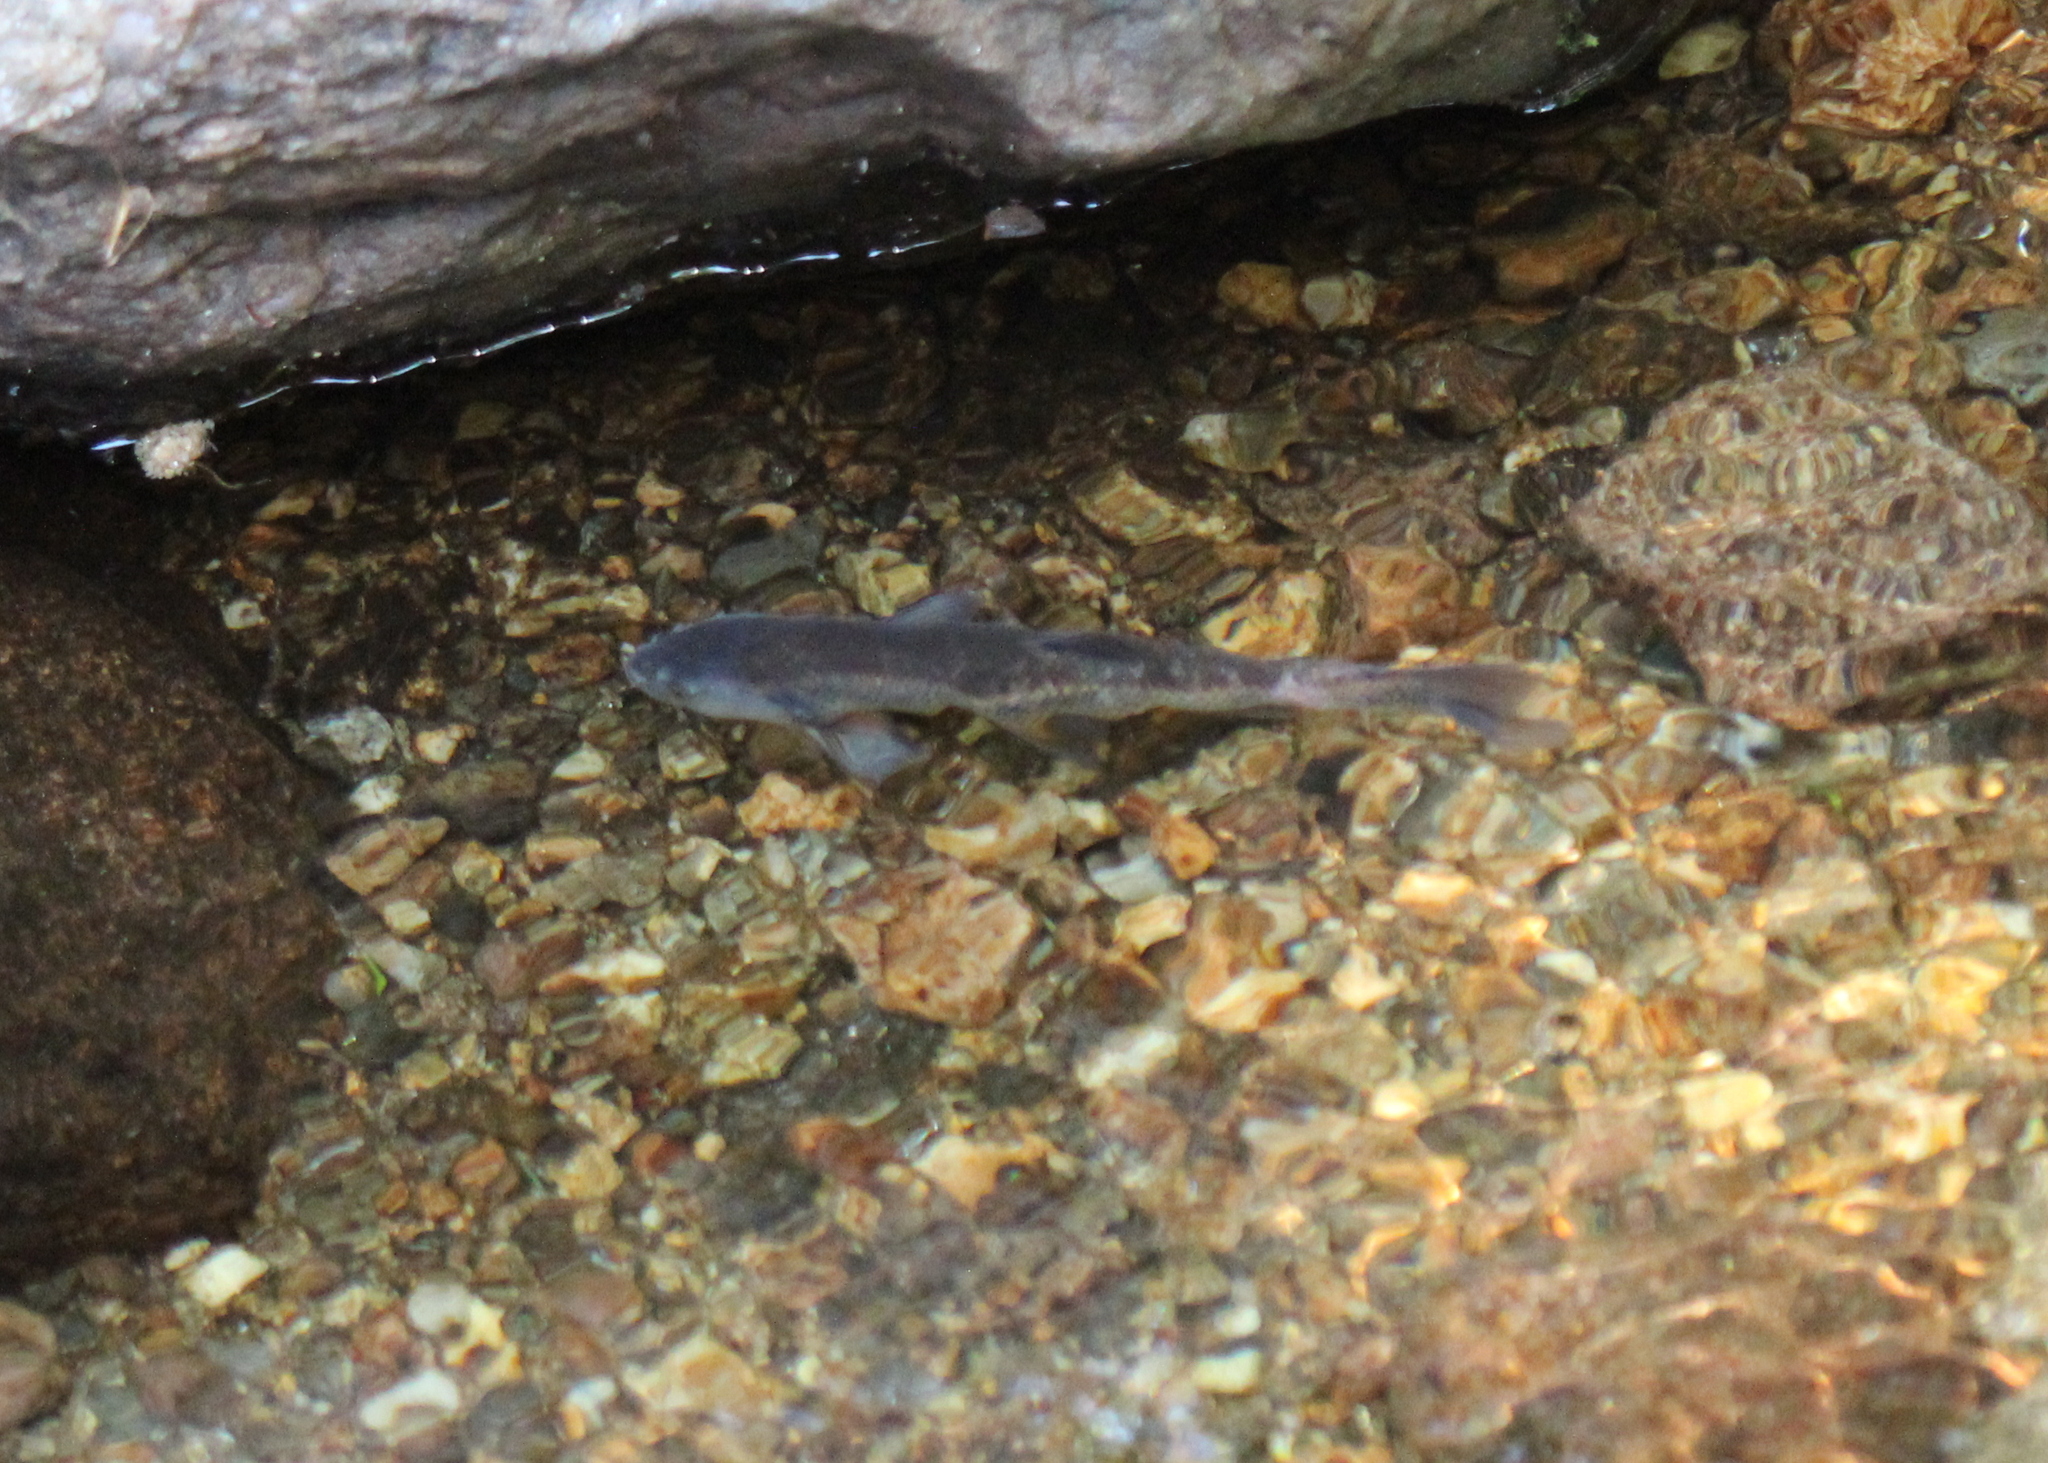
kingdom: Animalia
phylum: Chordata
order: Cypriniformes
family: Cyprinidae
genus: Semotilus
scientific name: Semotilus atromaculatus
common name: Creek chub
